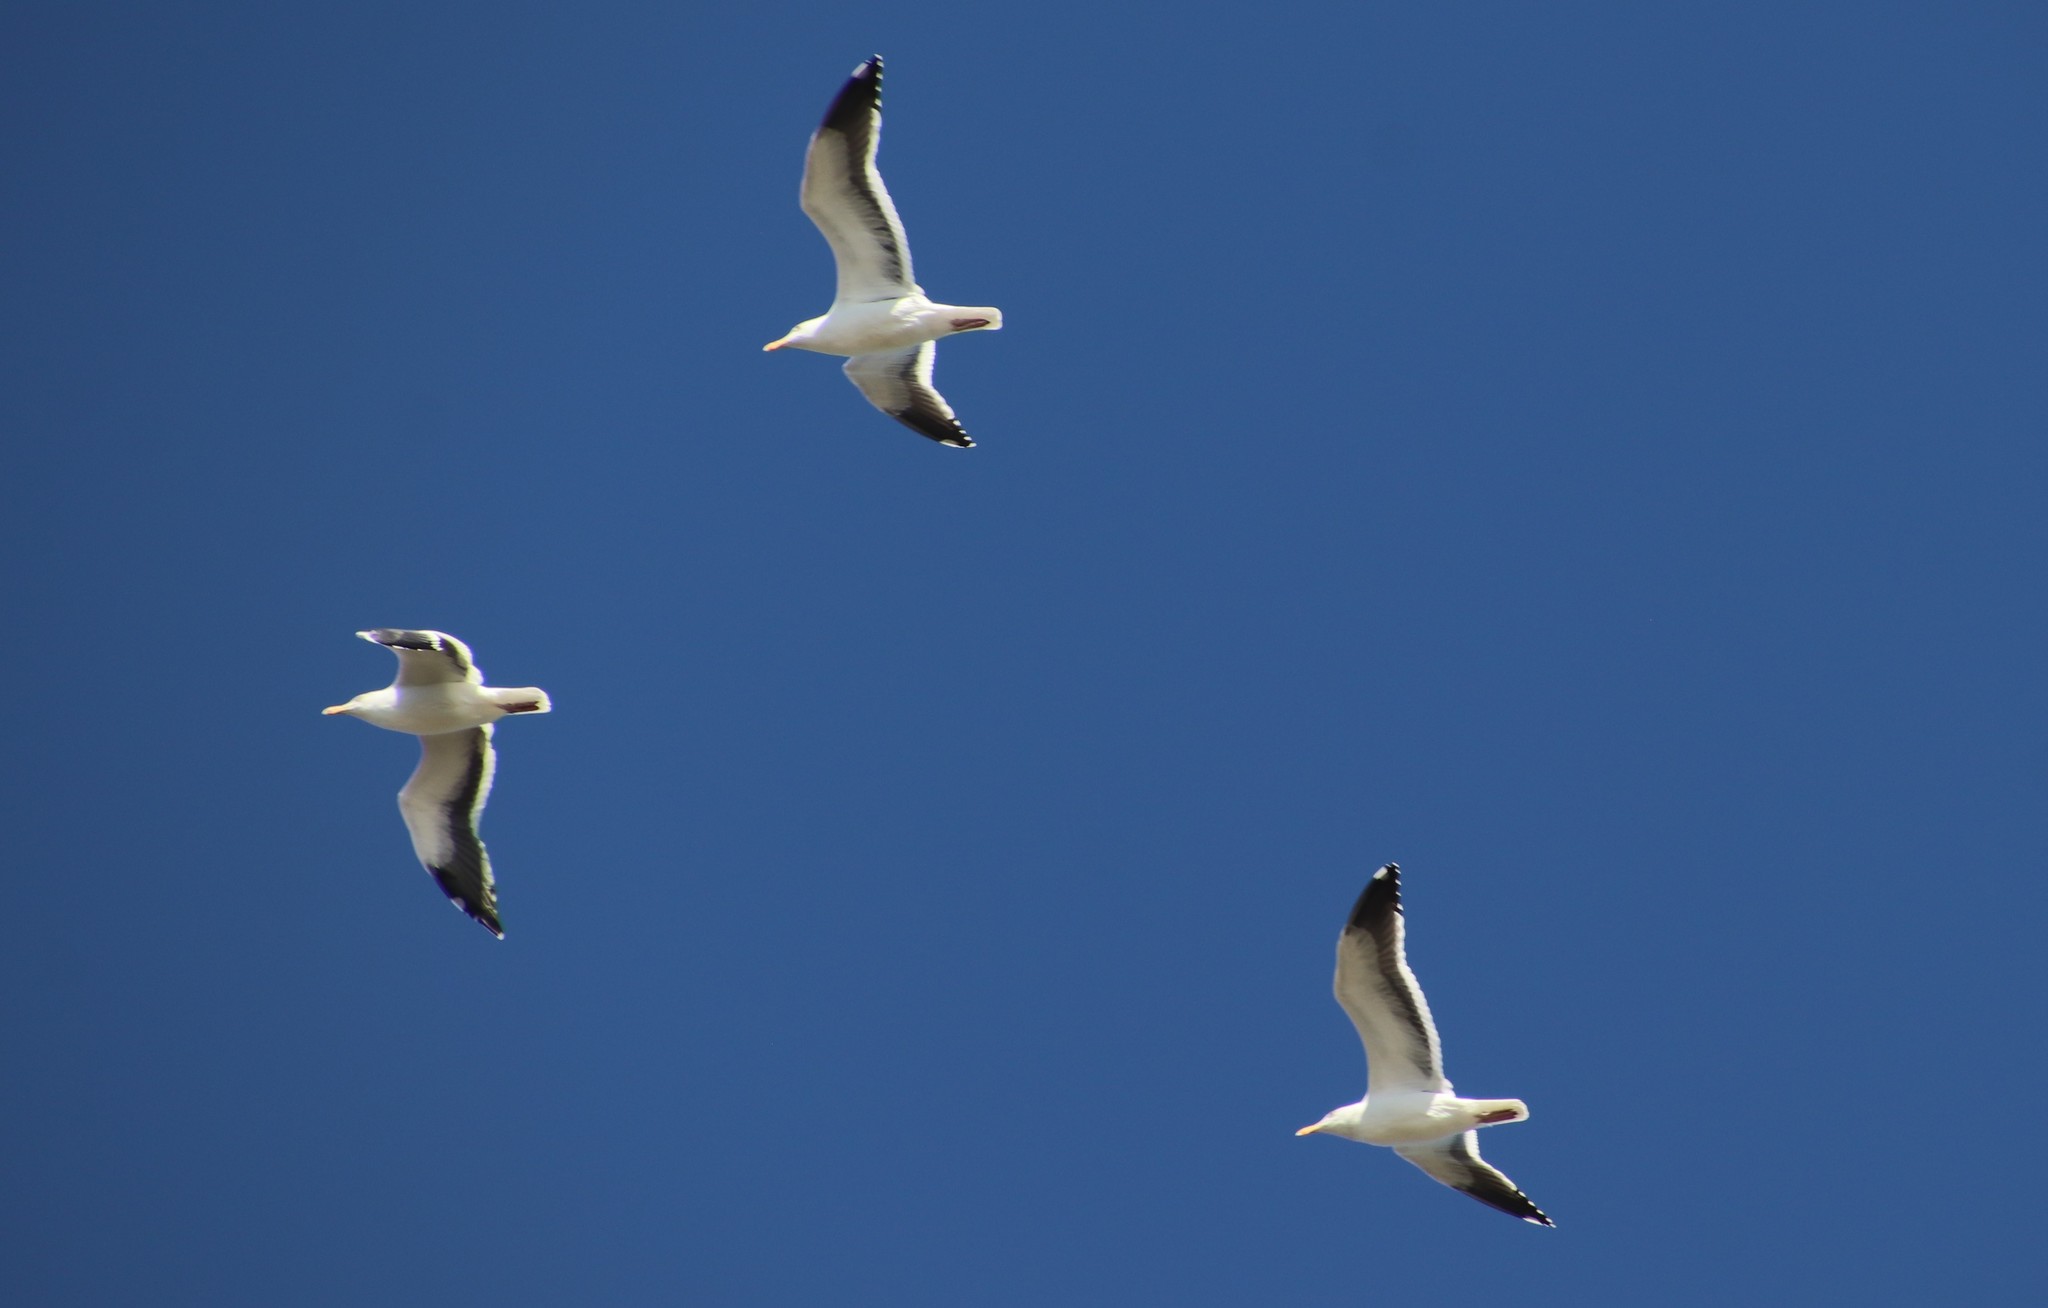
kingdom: Animalia
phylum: Chordata
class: Aves
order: Charadriiformes
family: Laridae
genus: Larus
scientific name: Larus occidentalis
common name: Western gull
